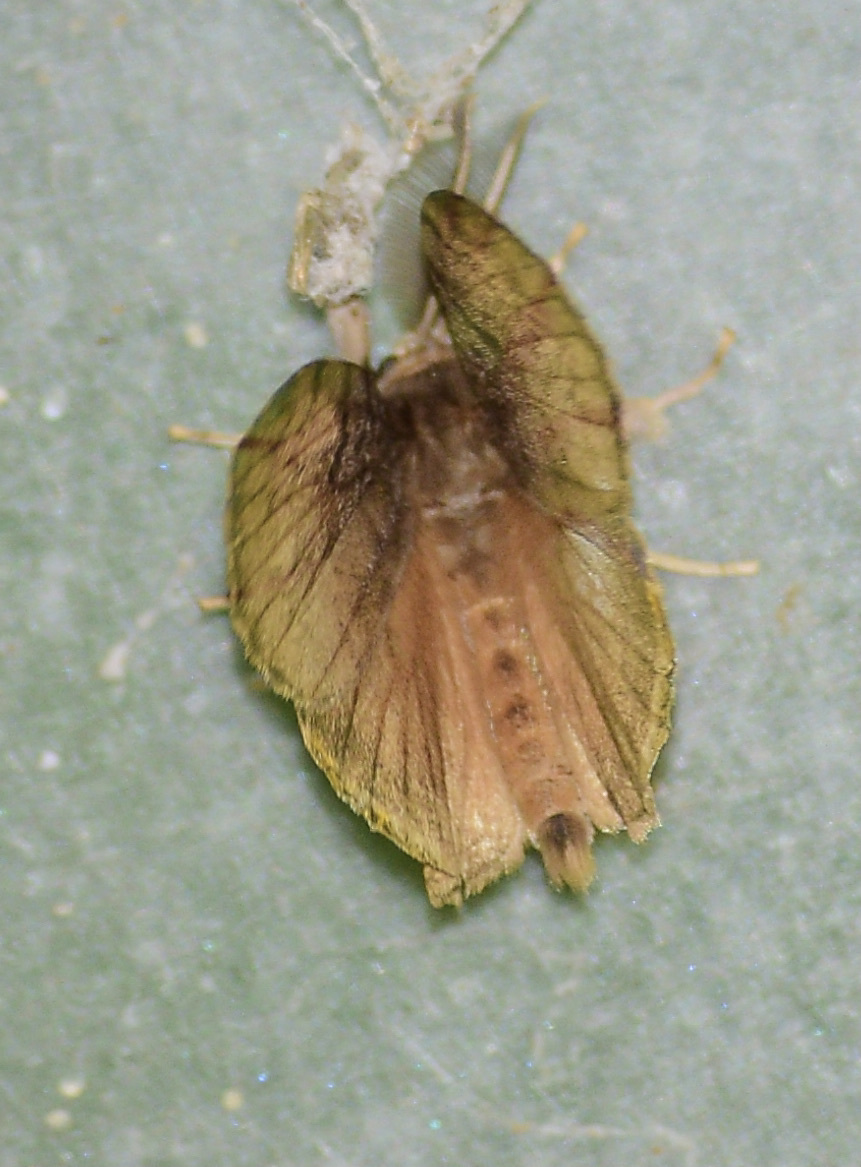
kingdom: Animalia
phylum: Arthropoda
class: Insecta
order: Lepidoptera
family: Erebidae
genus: Lymantria
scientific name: Lymantria dispar
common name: Gypsy moth
